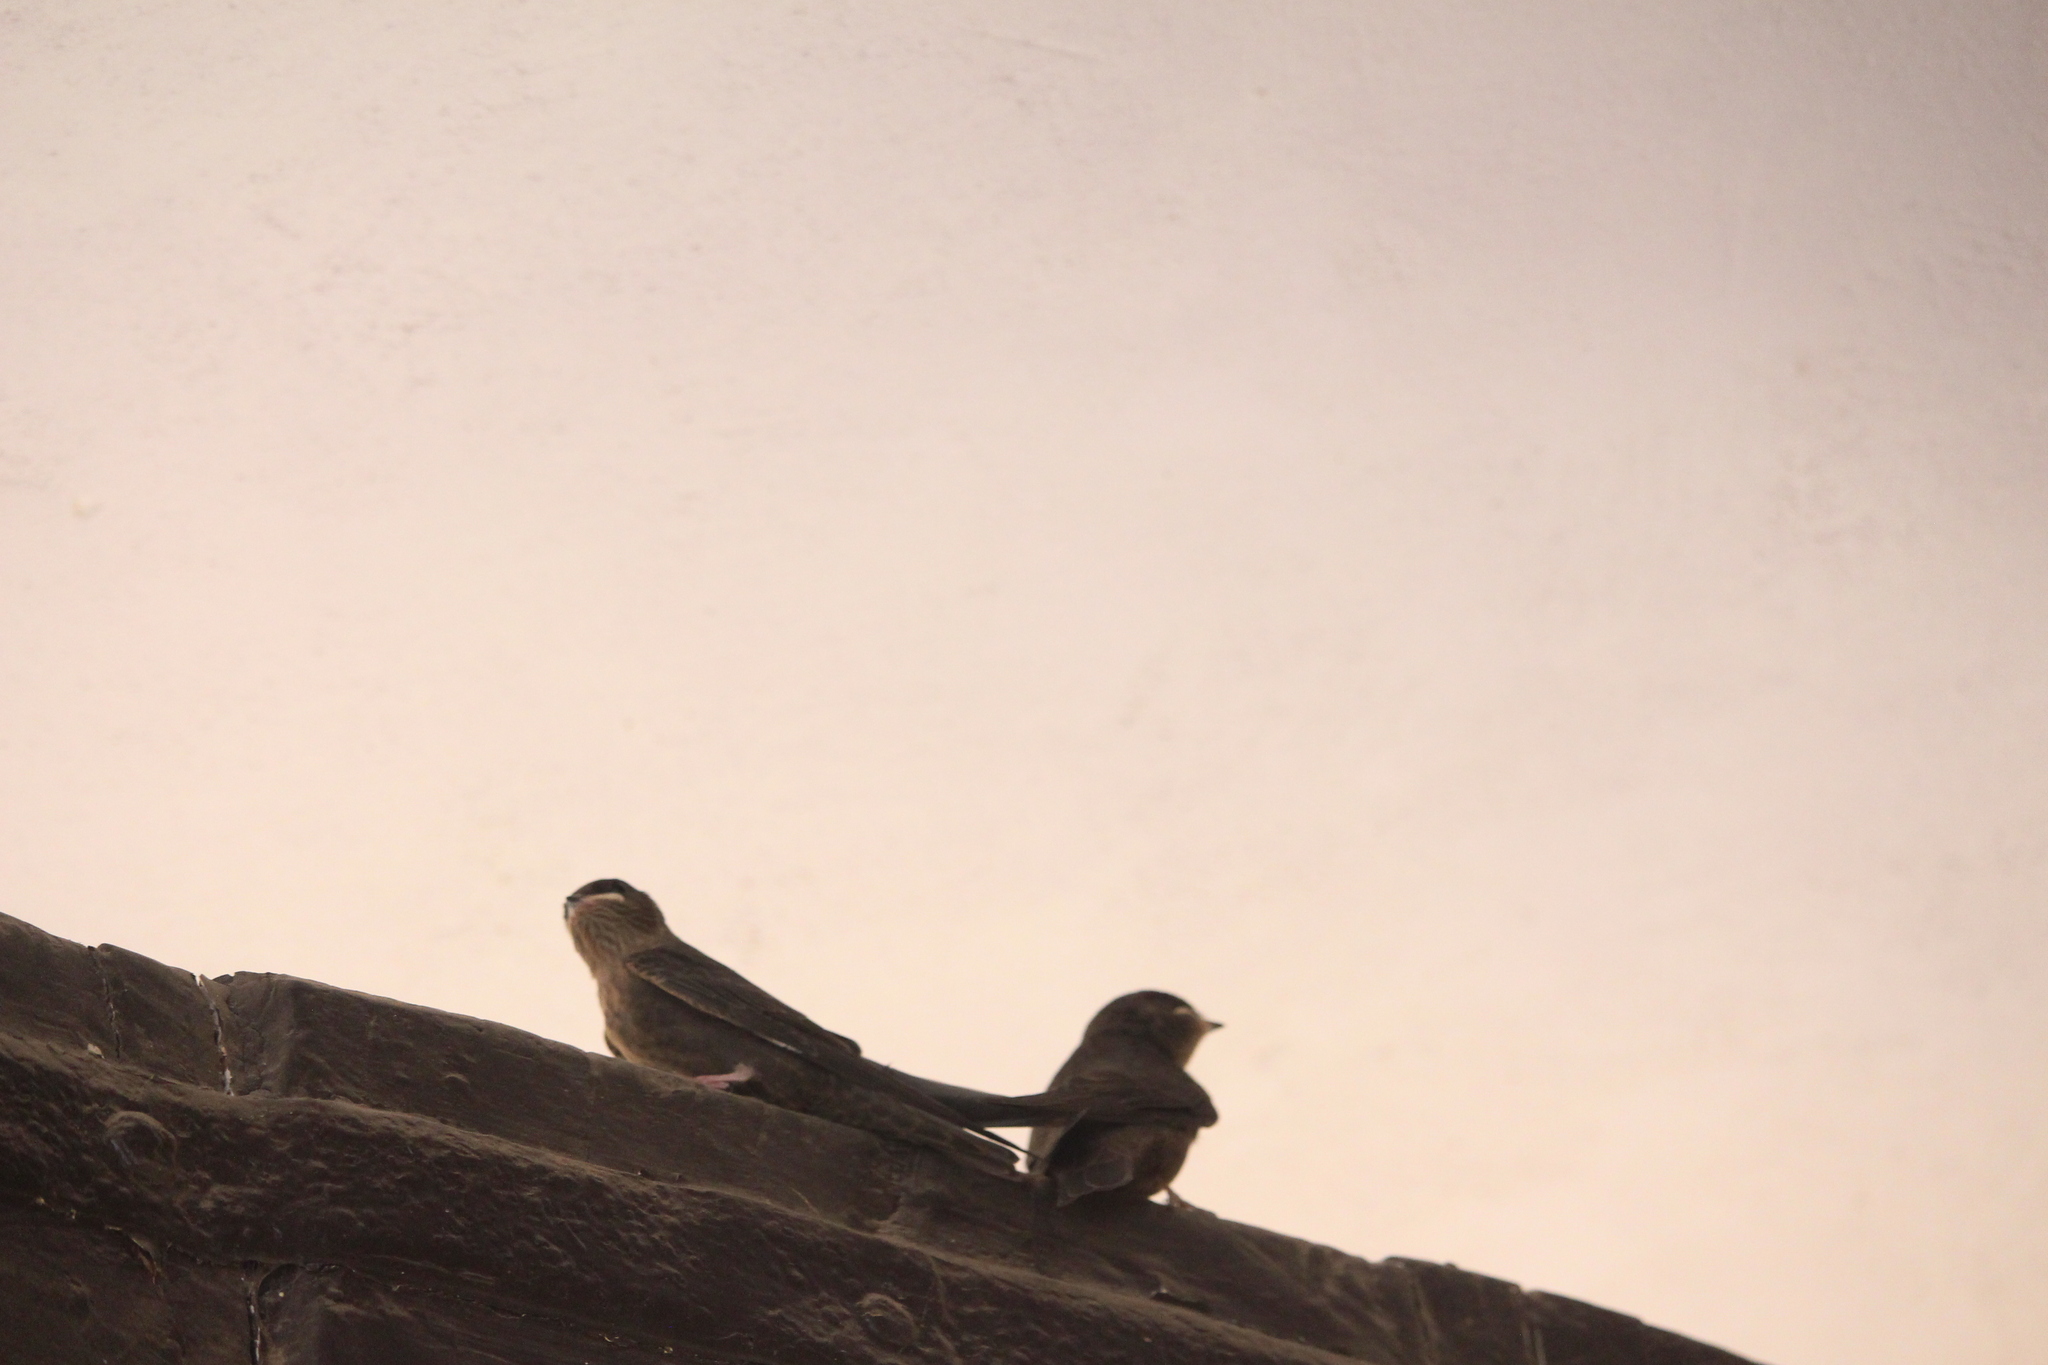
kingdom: Animalia
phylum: Chordata
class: Aves
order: Passeriformes
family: Hirundinidae
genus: Ptyonoprogne
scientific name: Ptyonoprogne concolor
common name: Dusky crag-martin
